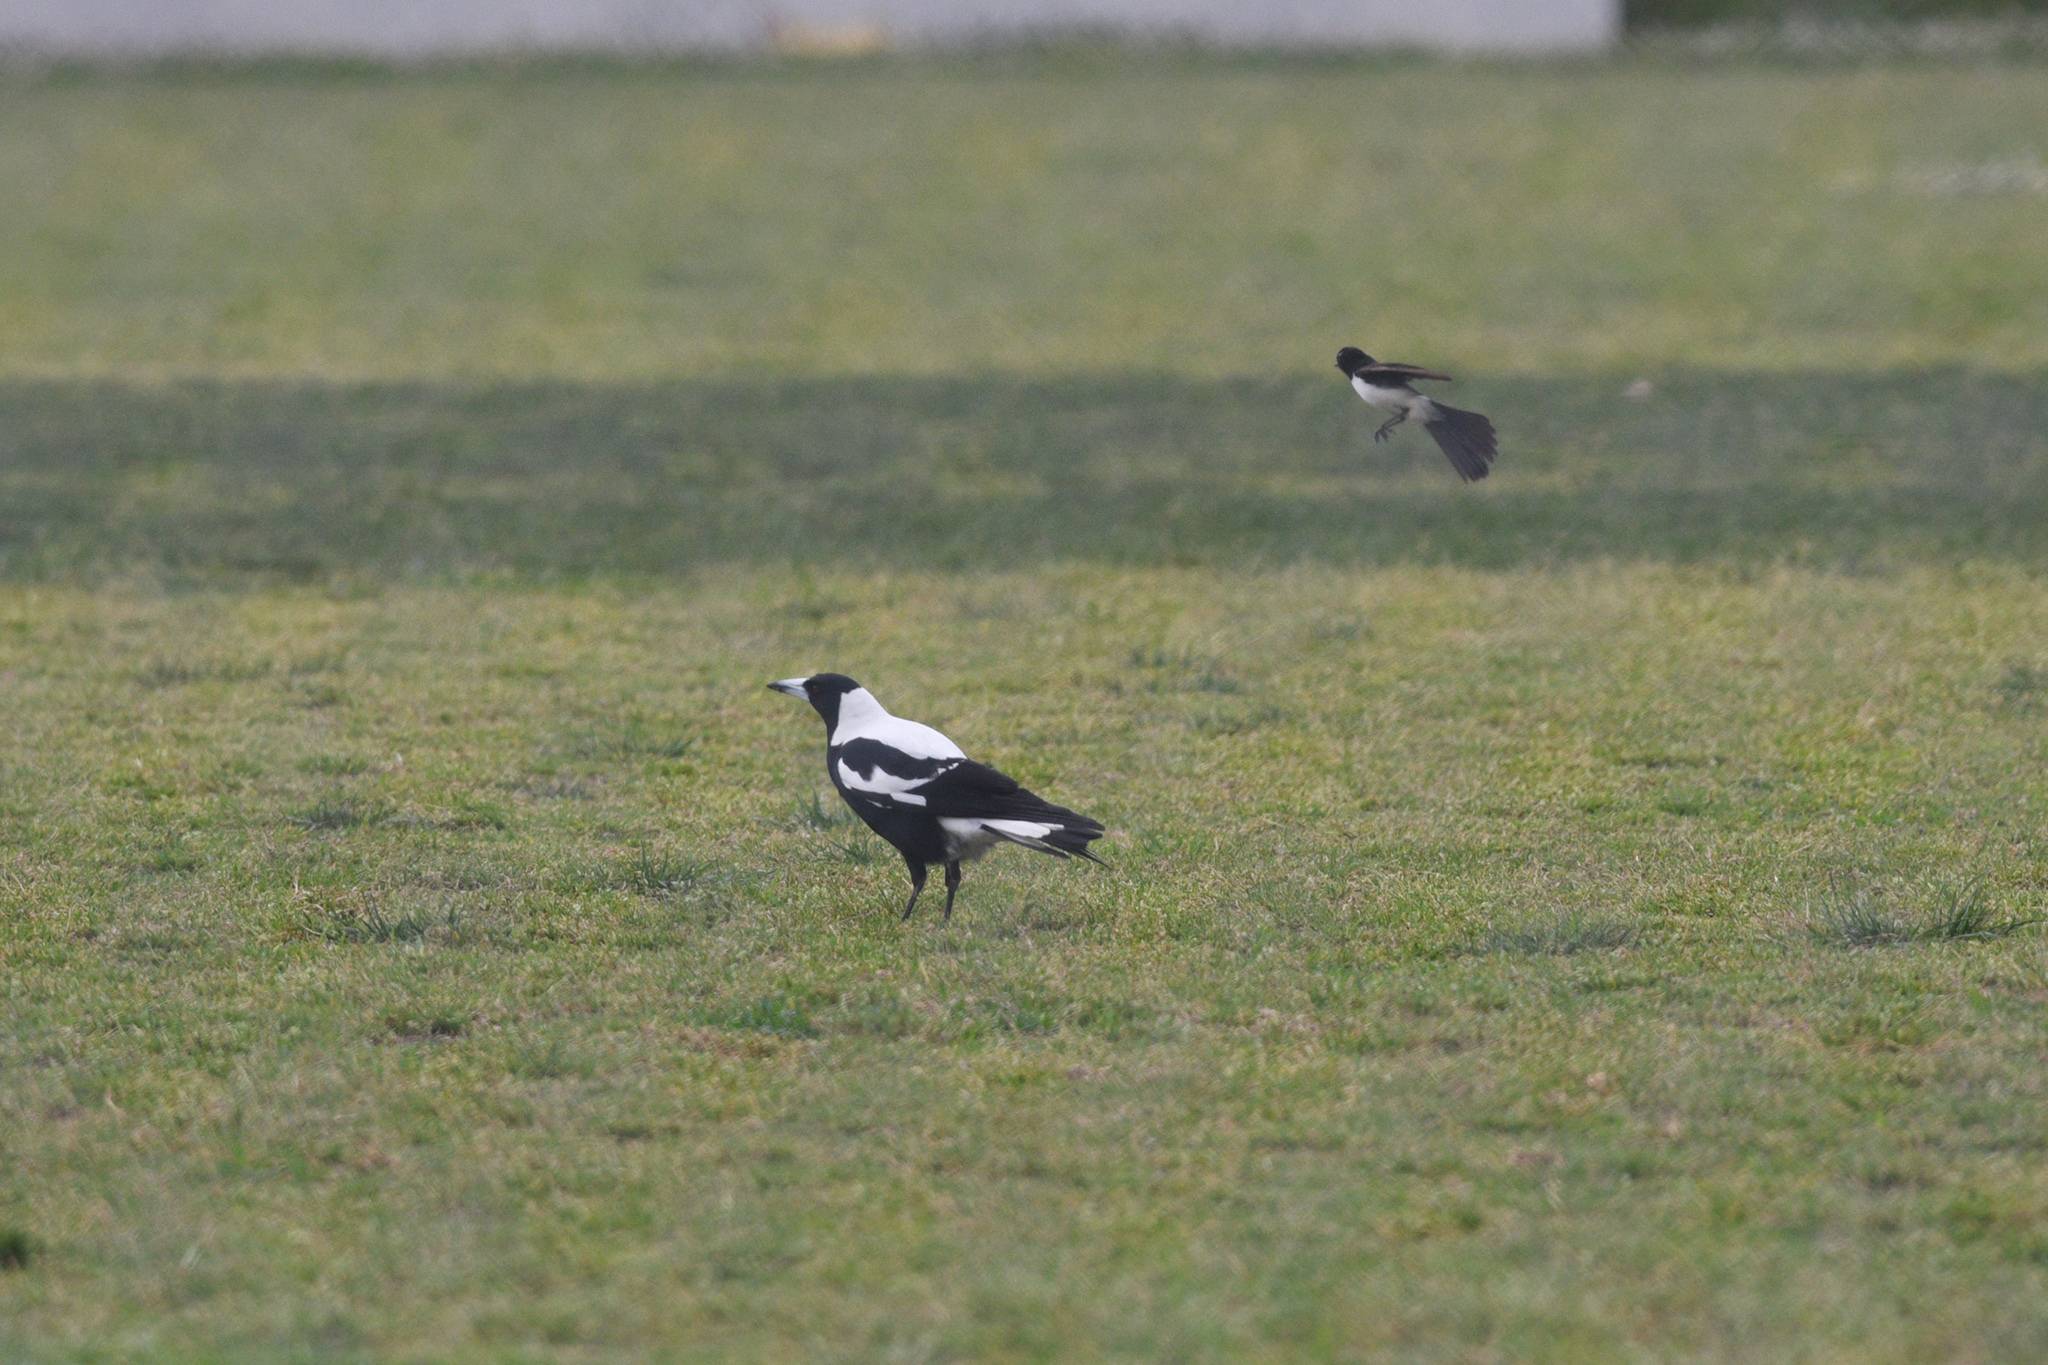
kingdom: Animalia
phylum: Chordata
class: Aves
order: Passeriformes
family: Cracticidae
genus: Gymnorhina
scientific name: Gymnorhina tibicen
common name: Australian magpie
